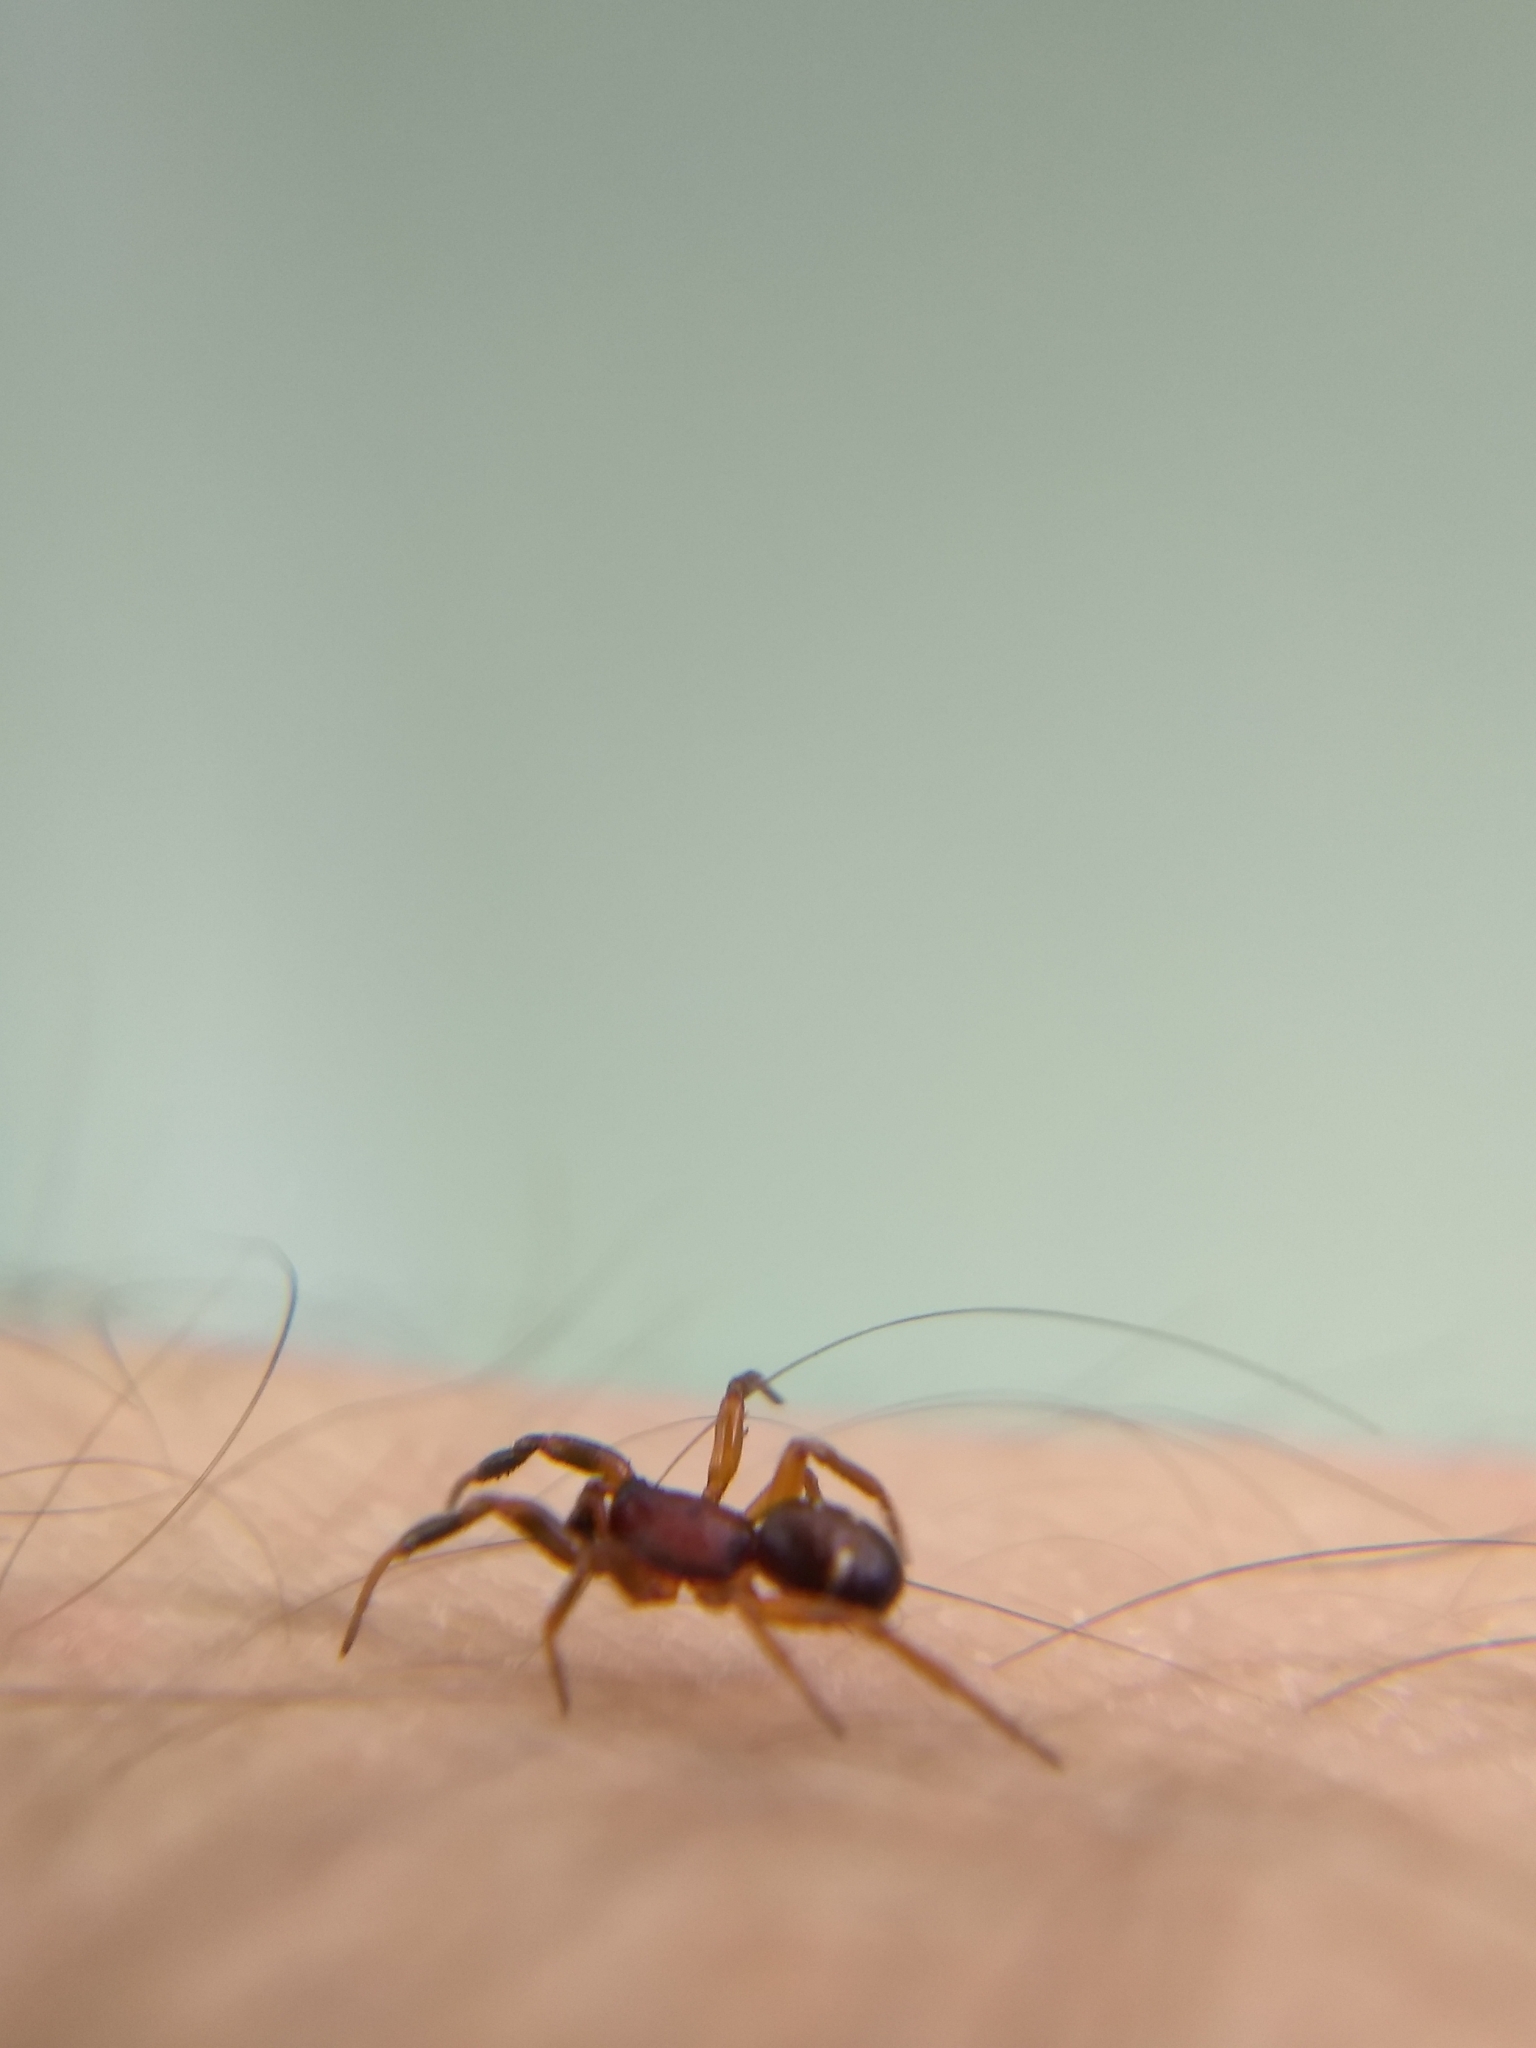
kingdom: Animalia
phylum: Arthropoda
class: Arachnida
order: Araneae
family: Theridiidae
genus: Asagena
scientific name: Asagena americana
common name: Two-spotted cobweb spider
